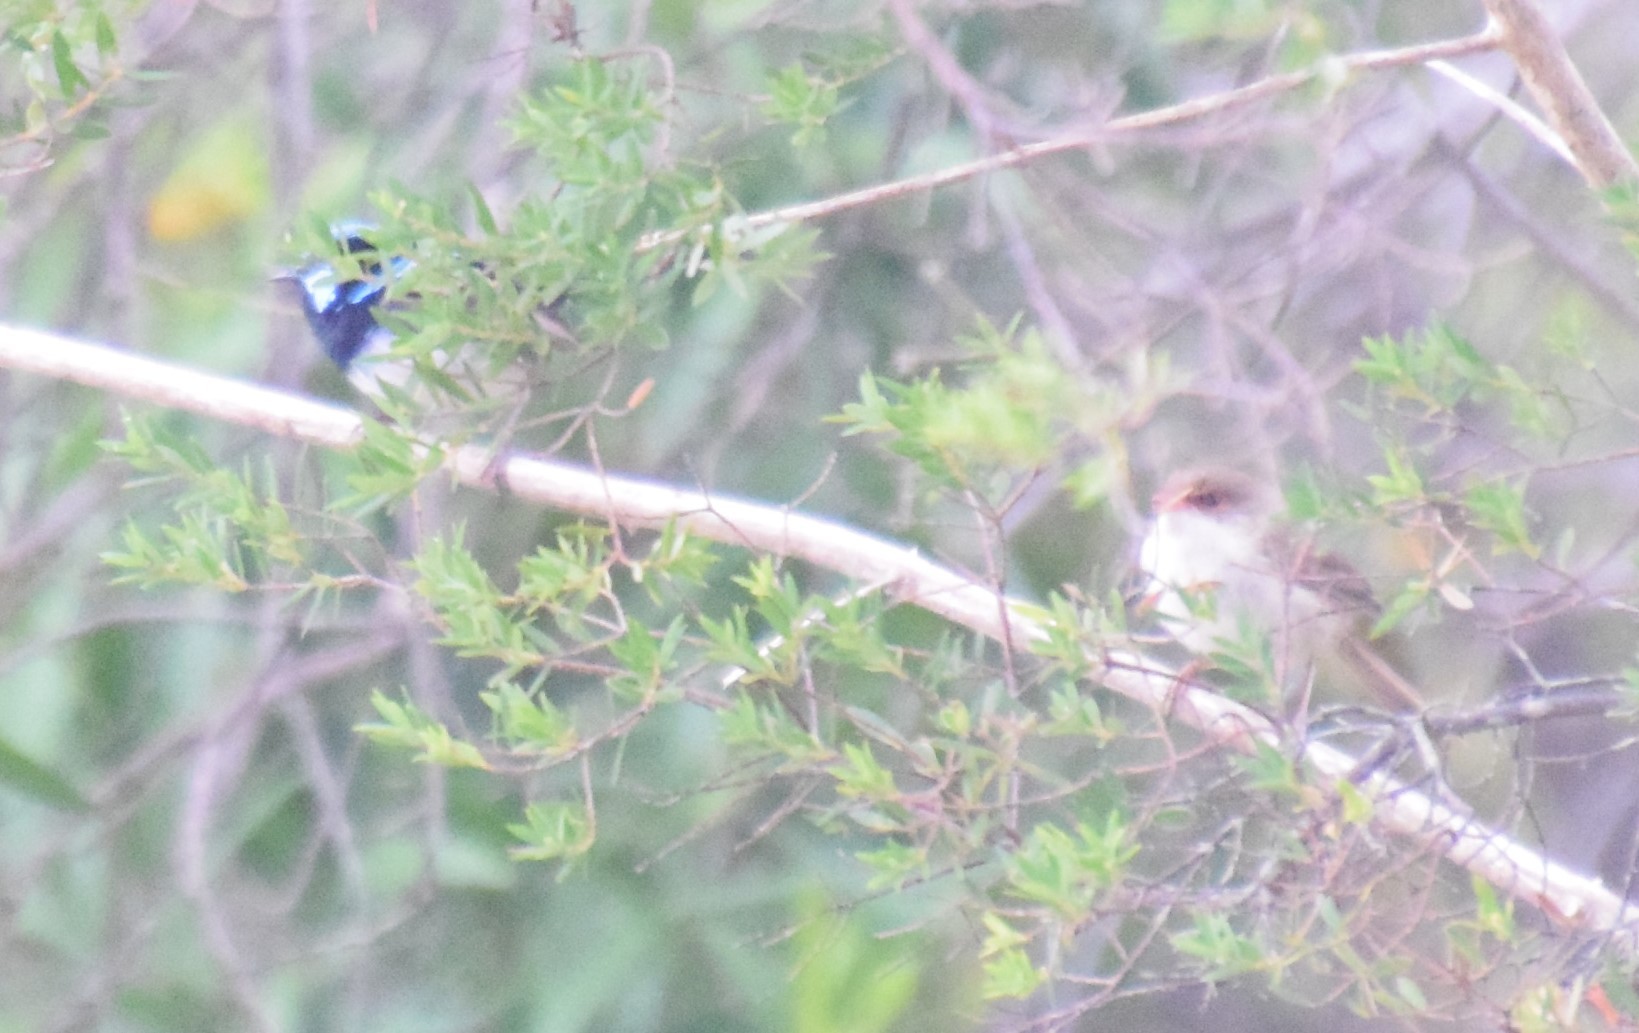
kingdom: Animalia
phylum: Chordata
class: Aves
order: Passeriformes
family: Maluridae
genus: Malurus
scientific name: Malurus cyaneus
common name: Superb fairywren
